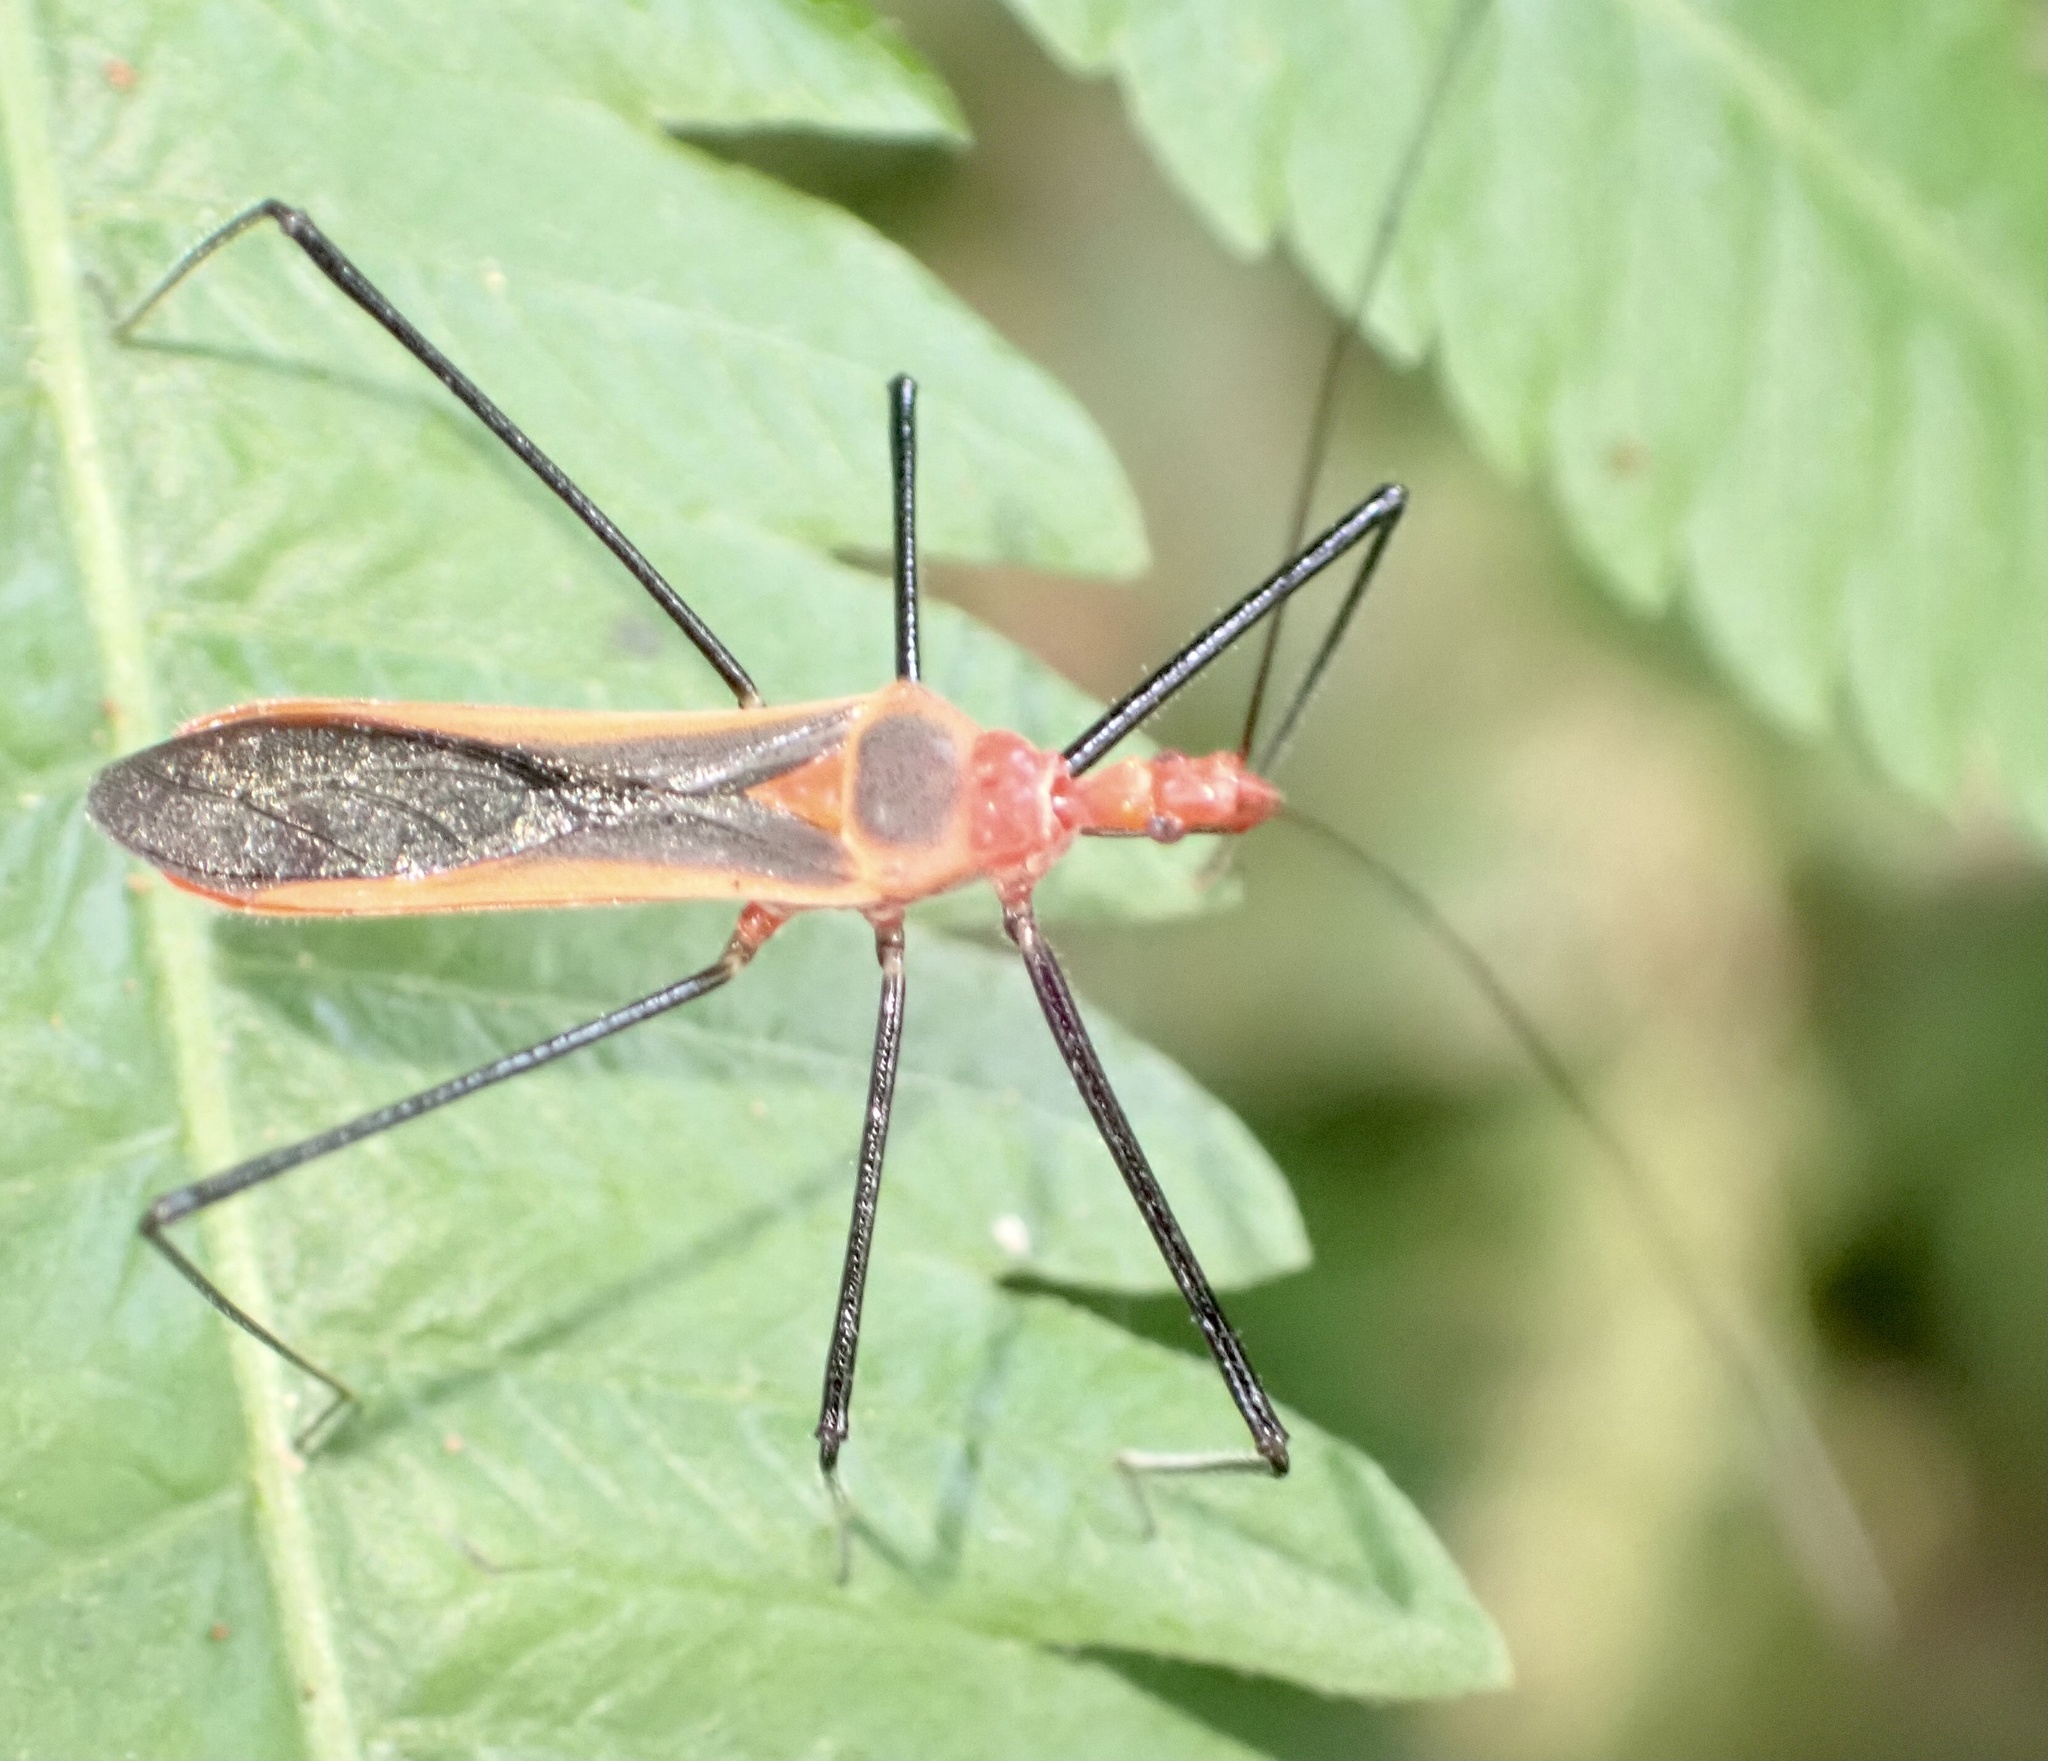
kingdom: Animalia
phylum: Arthropoda
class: Insecta
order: Hemiptera
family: Reduviidae
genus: Pisilus
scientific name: Pisilus tipuliformis
